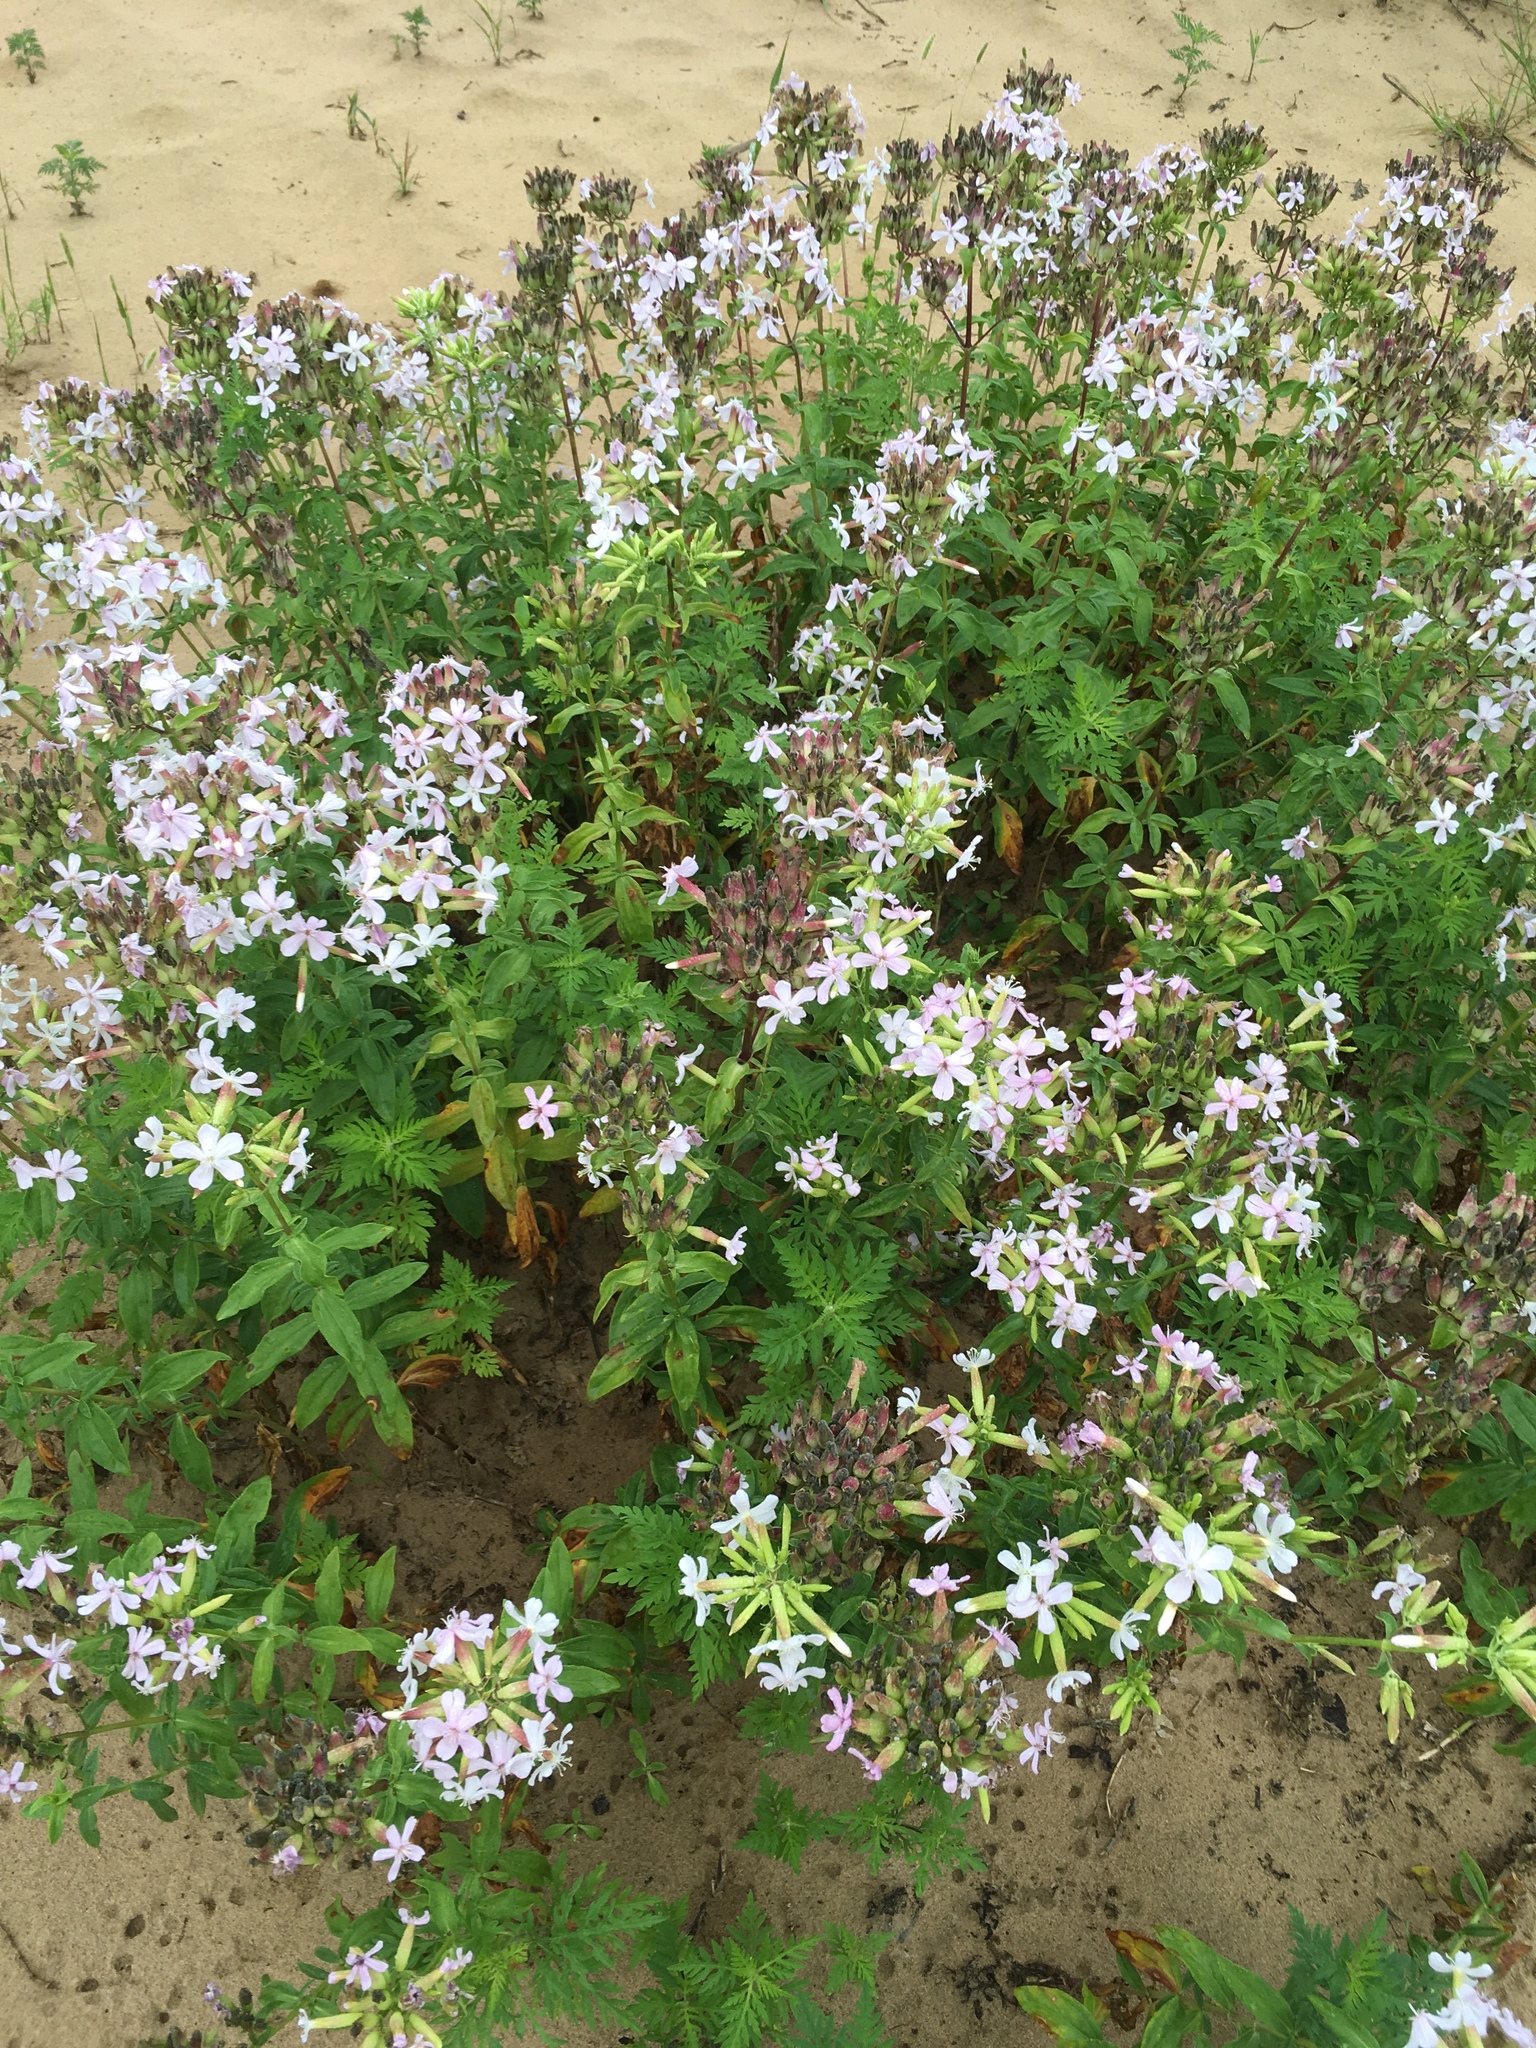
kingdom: Plantae
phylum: Tracheophyta
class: Magnoliopsida
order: Caryophyllales
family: Caryophyllaceae
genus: Saponaria
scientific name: Saponaria officinalis
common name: Soapwort
